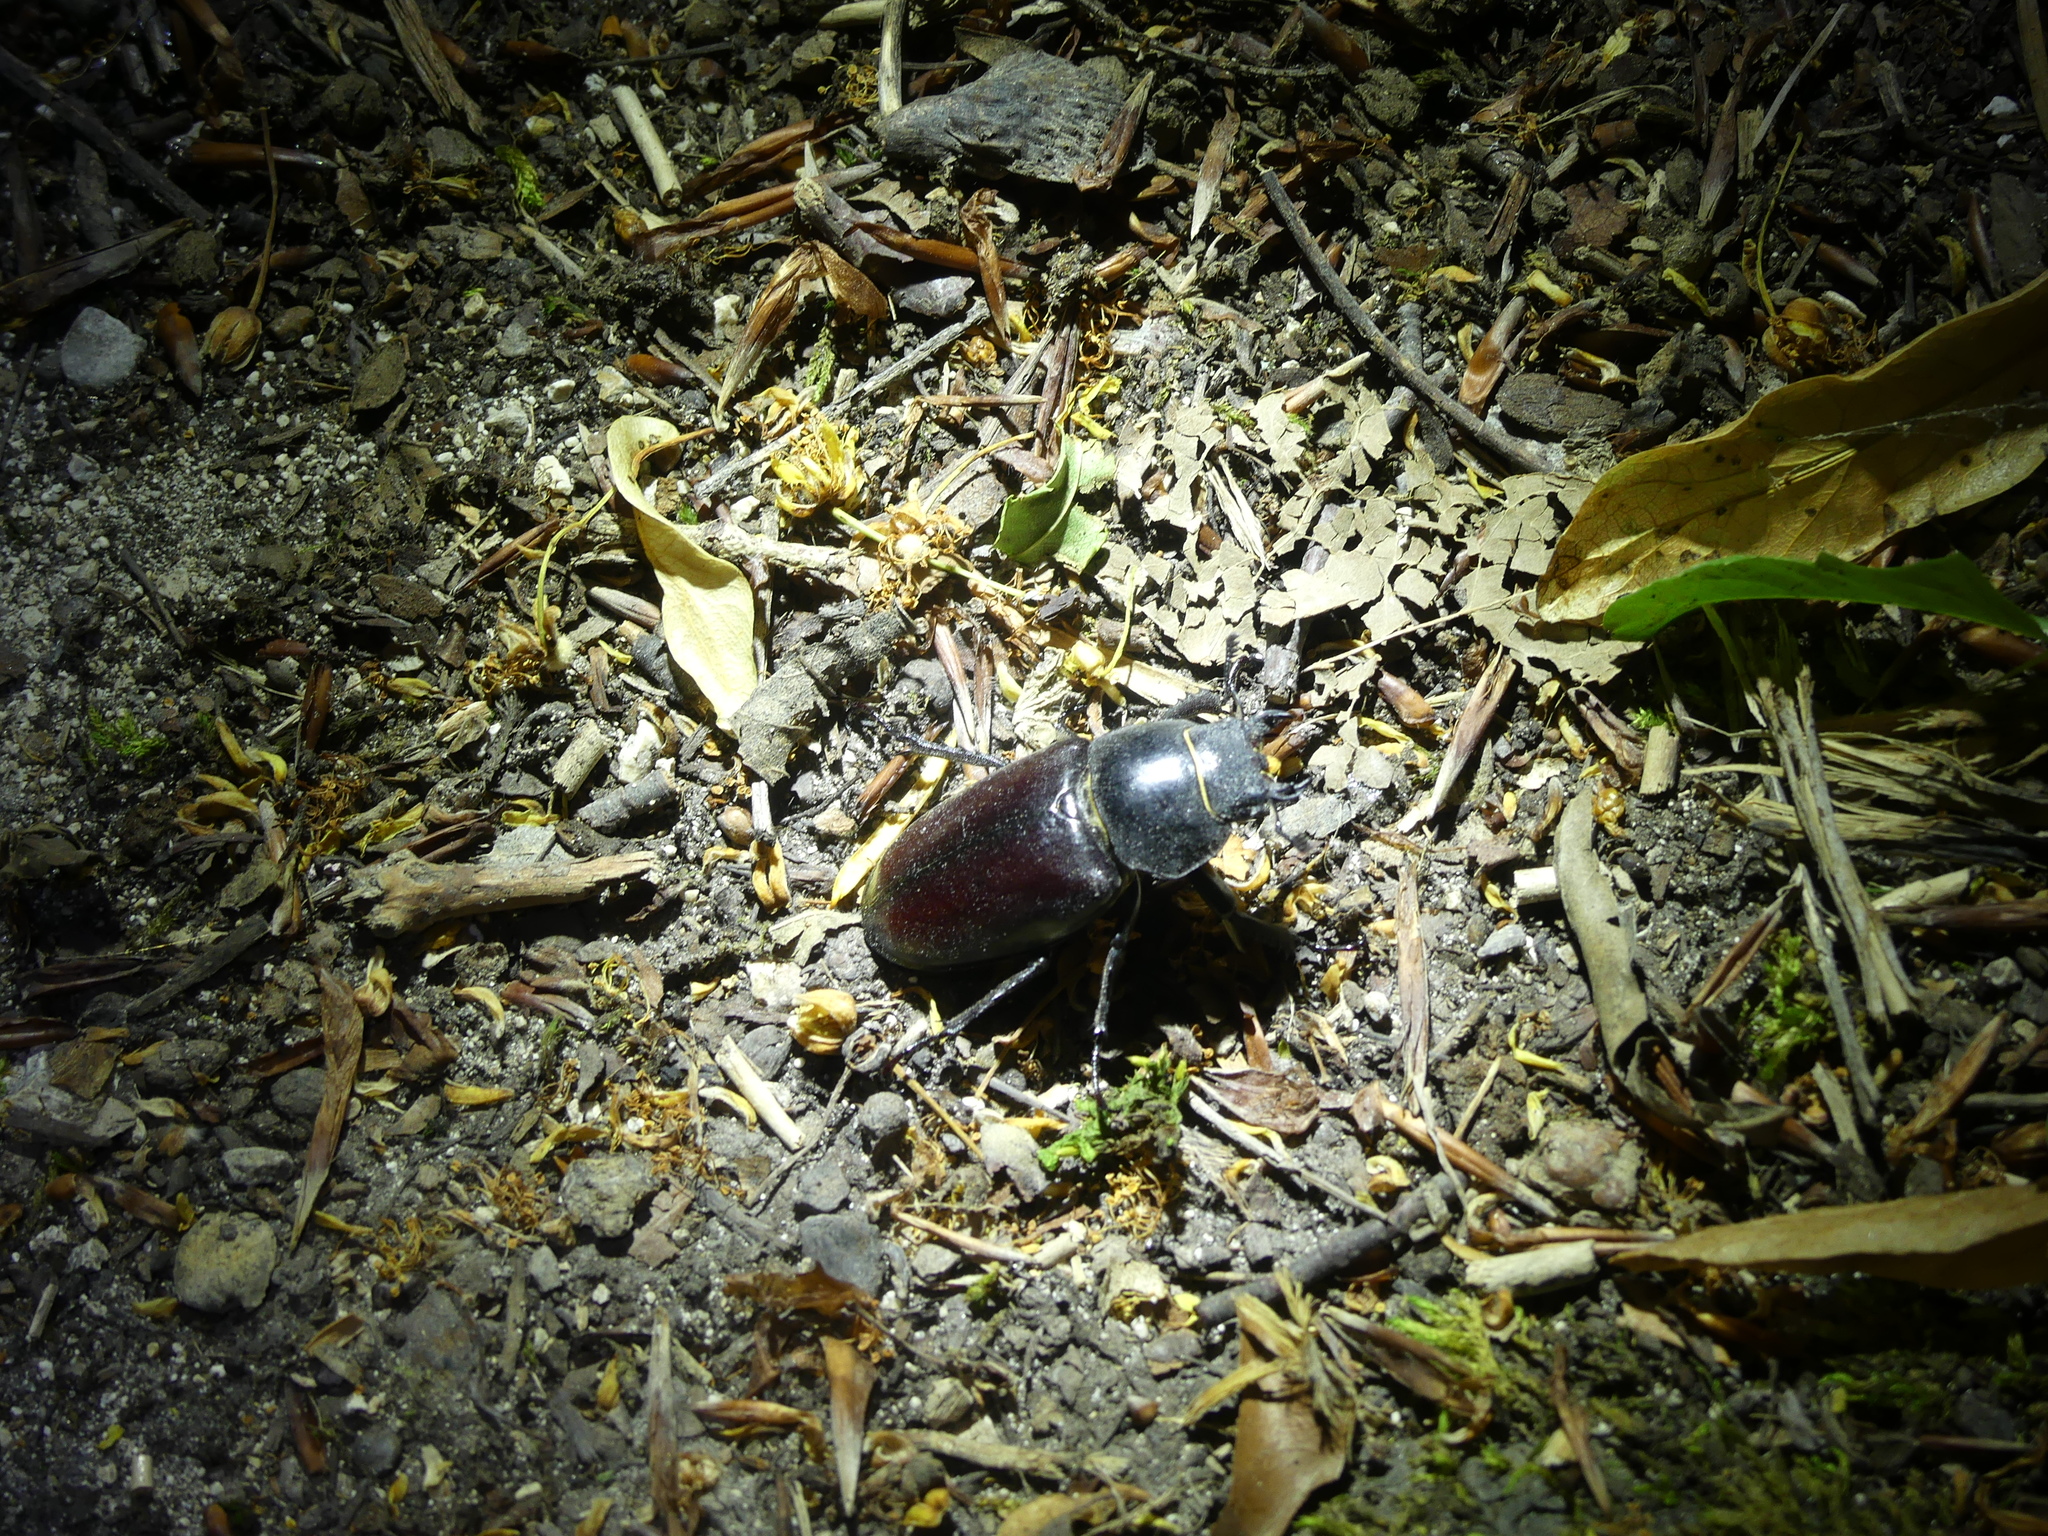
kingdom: Animalia
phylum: Arthropoda
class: Insecta
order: Coleoptera
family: Lucanidae
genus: Lucanus
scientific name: Lucanus cervus
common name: Stag beetle
